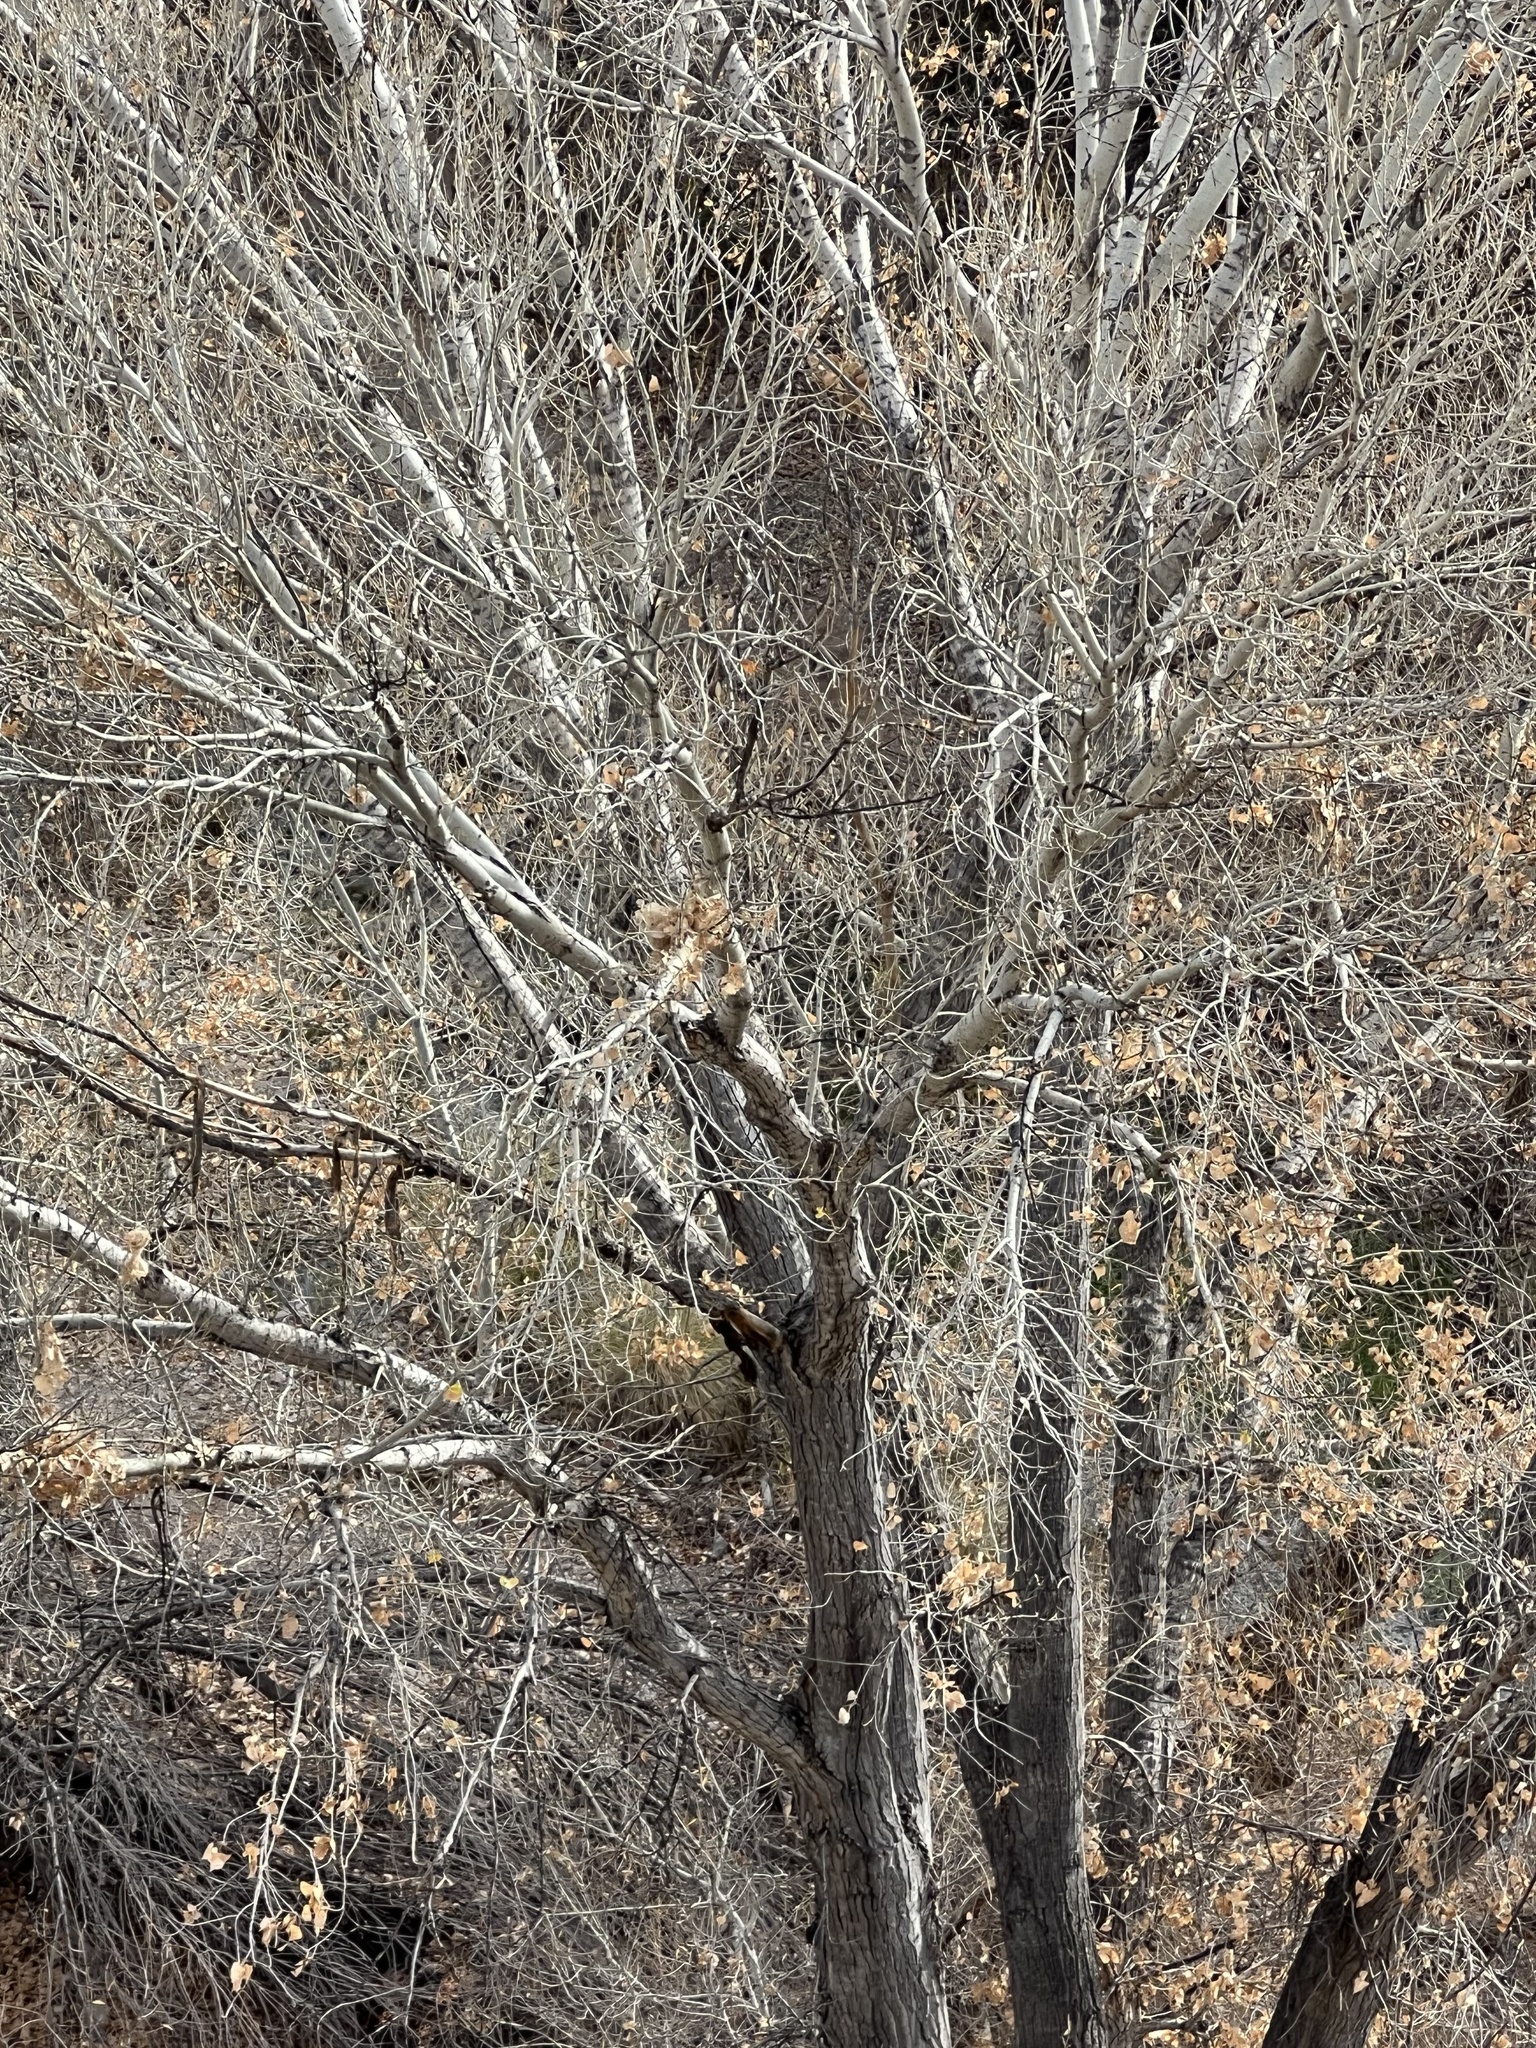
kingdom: Plantae
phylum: Tracheophyta
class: Magnoliopsida
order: Malpighiales
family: Salicaceae
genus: Populus
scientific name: Populus fremontii
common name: Fremont's cottonwood
